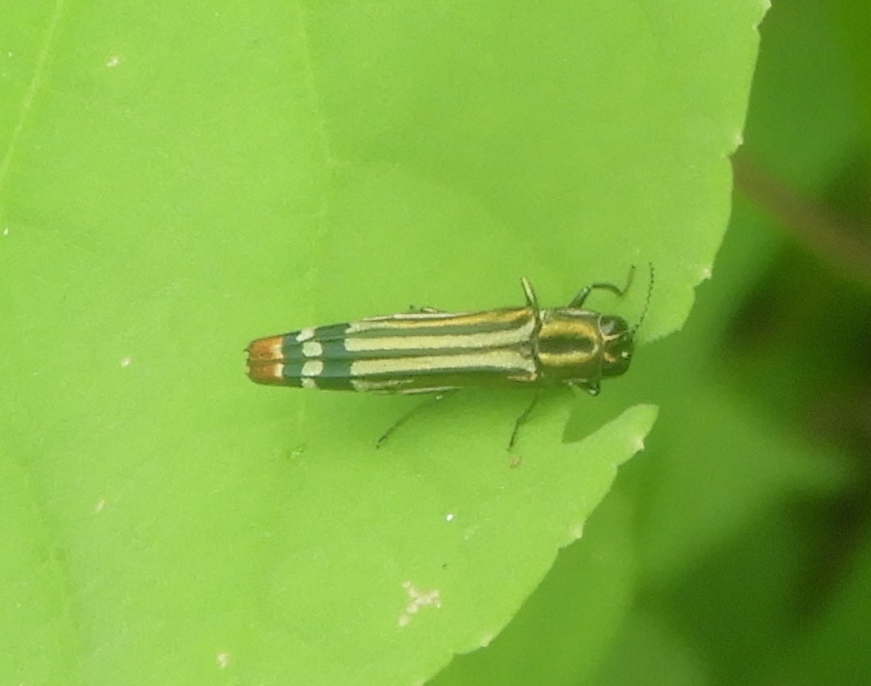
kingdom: Animalia
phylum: Arthropoda
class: Insecta
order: Coleoptera
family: Buprestidae
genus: Agrilus
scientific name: Agrilus catherinae
